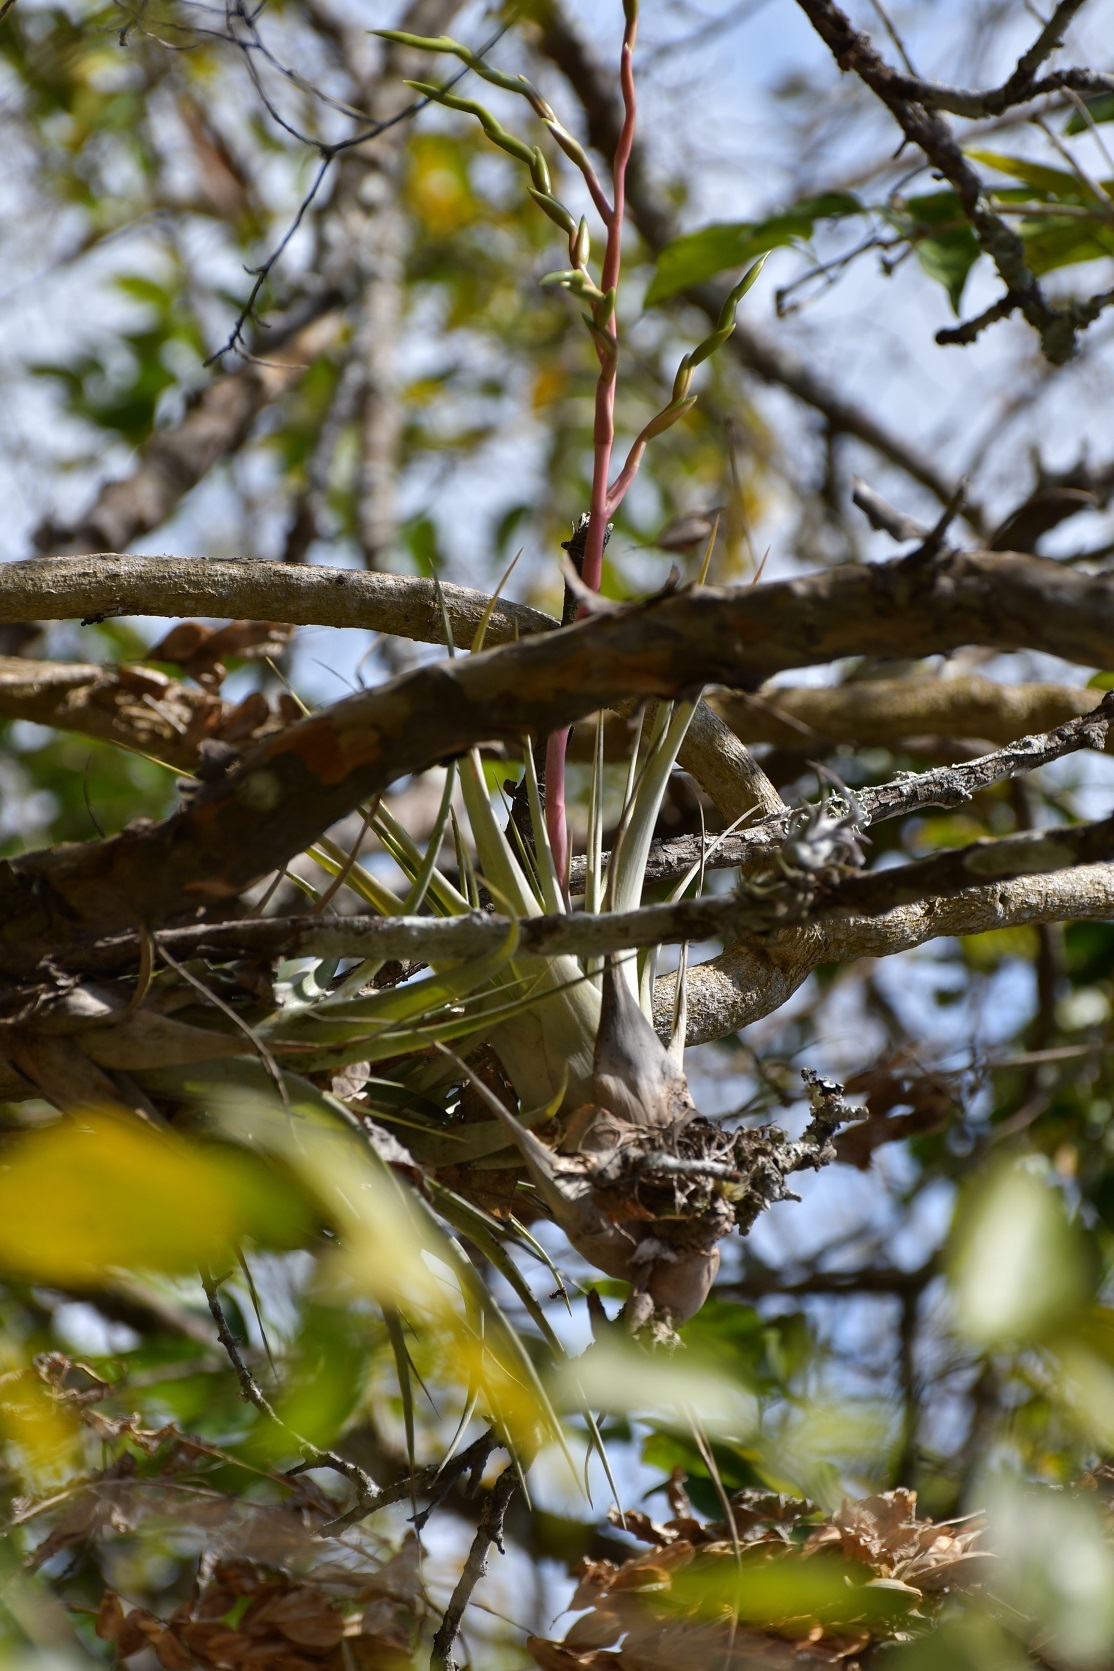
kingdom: Plantae
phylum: Tracheophyta
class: Liliopsida
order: Poales
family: Bromeliaceae
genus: Tillandsia
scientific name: Tillandsia elusiva
